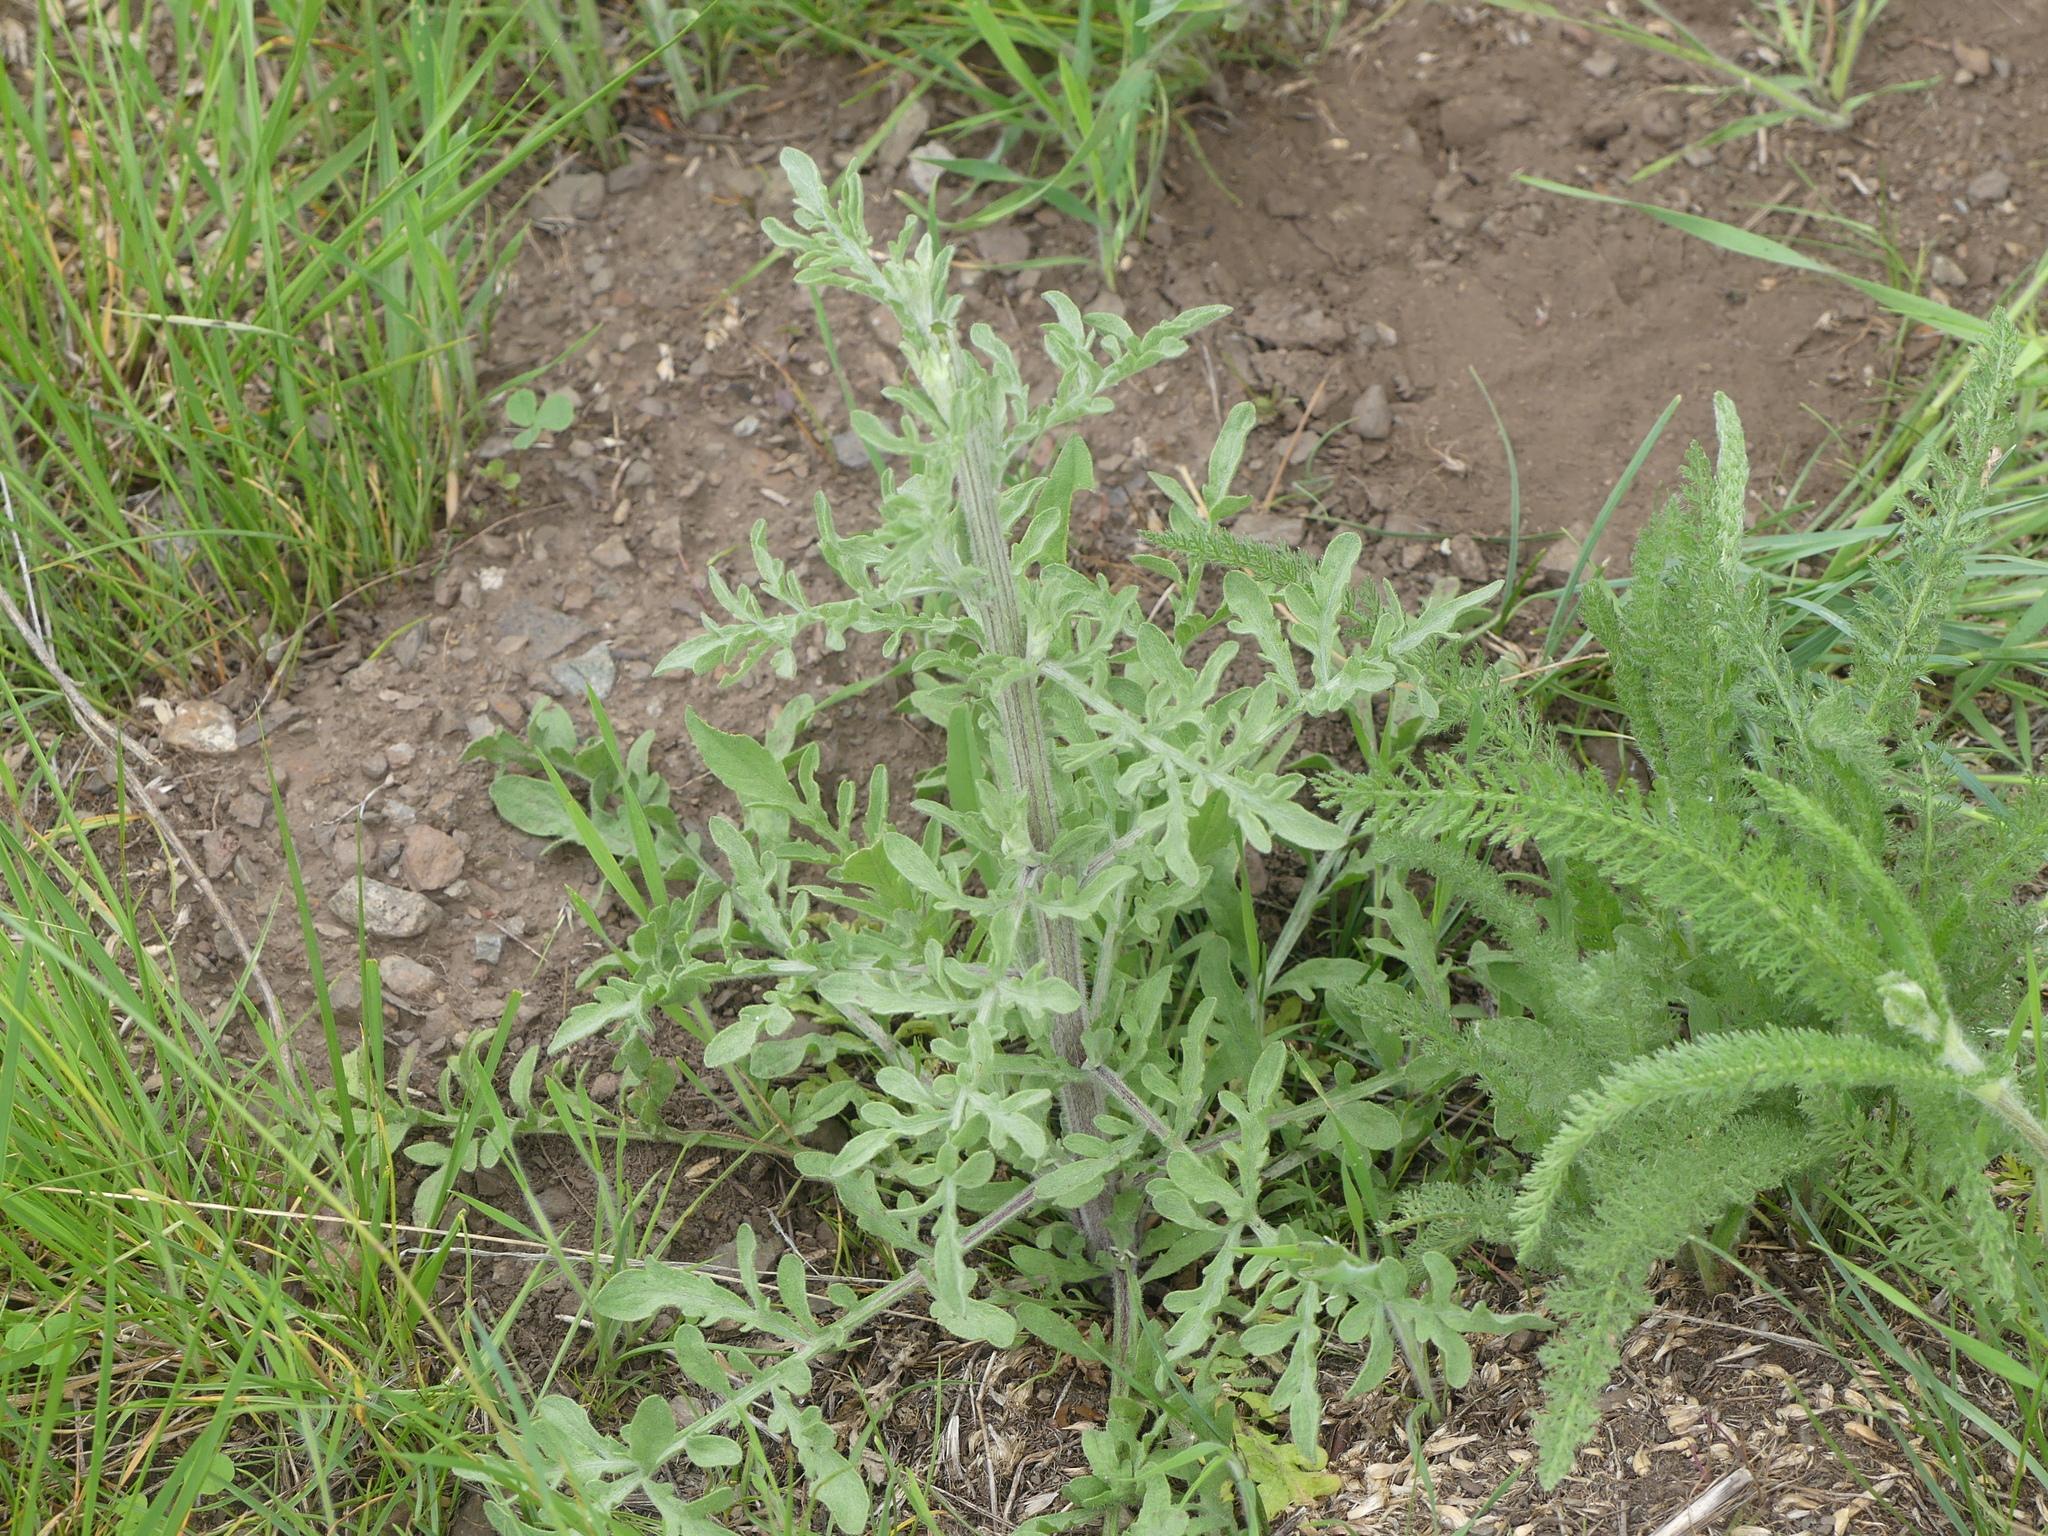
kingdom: Plantae
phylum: Tracheophyta
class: Magnoliopsida
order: Asterales
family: Asteraceae
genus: Centaurea
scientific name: Centaurea diffusa
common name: Diffuse knapweed
